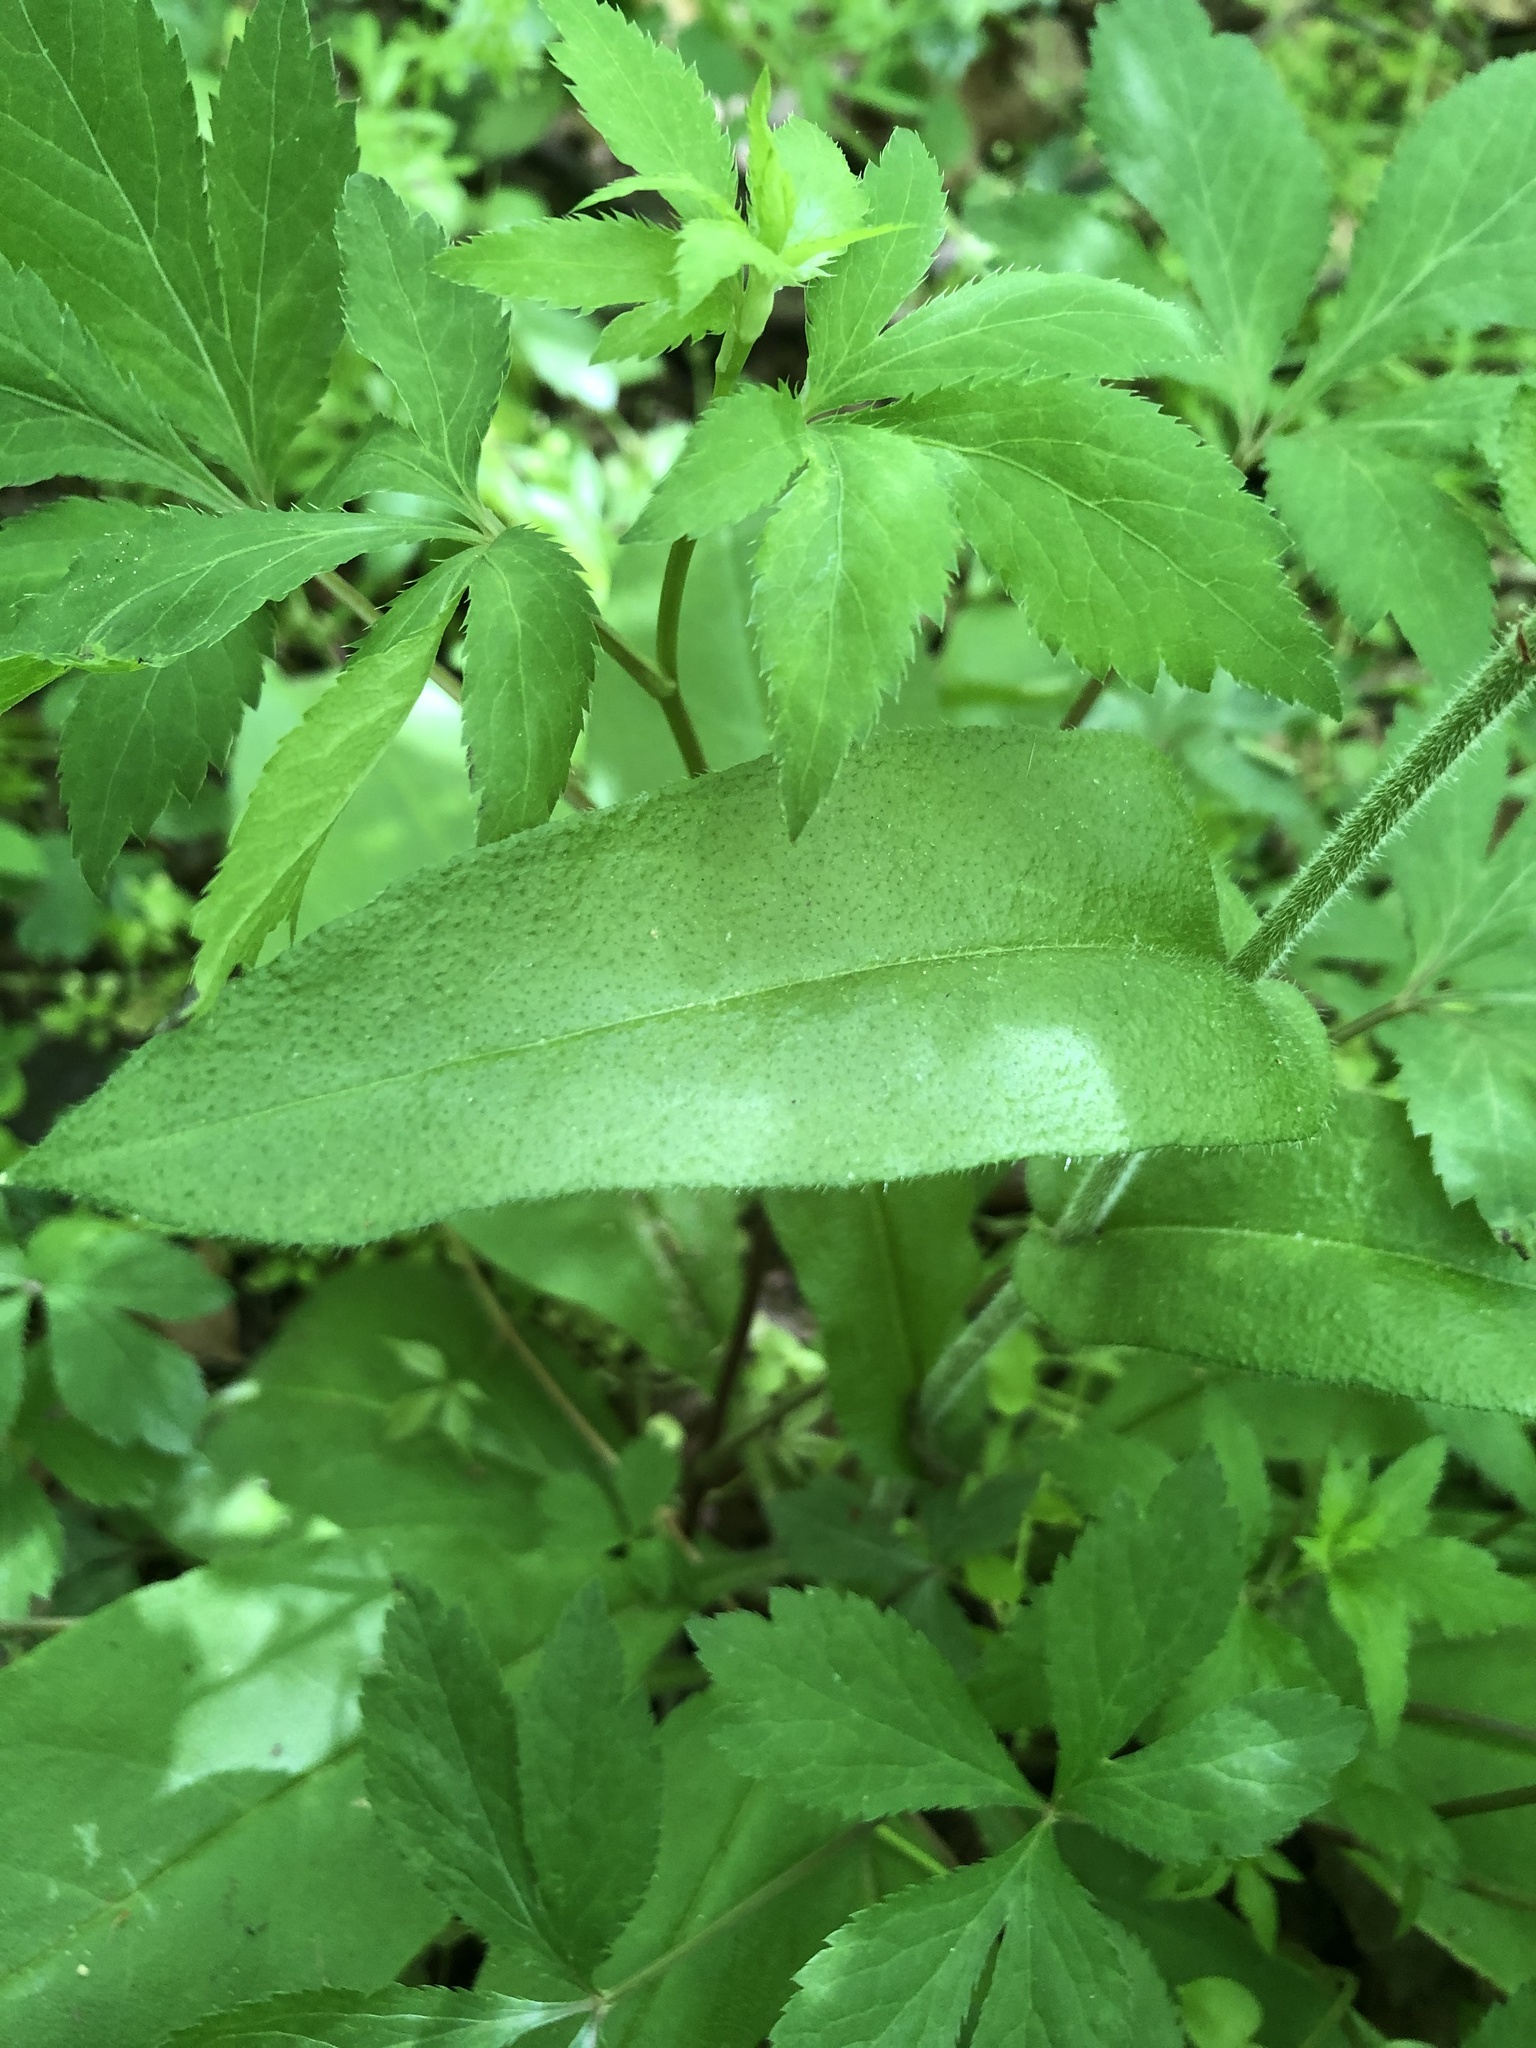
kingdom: Plantae
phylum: Tracheophyta
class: Magnoliopsida
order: Boraginales
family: Boraginaceae
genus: Andersonglossum
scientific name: Andersonglossum virginianum
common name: Wild comfrey
